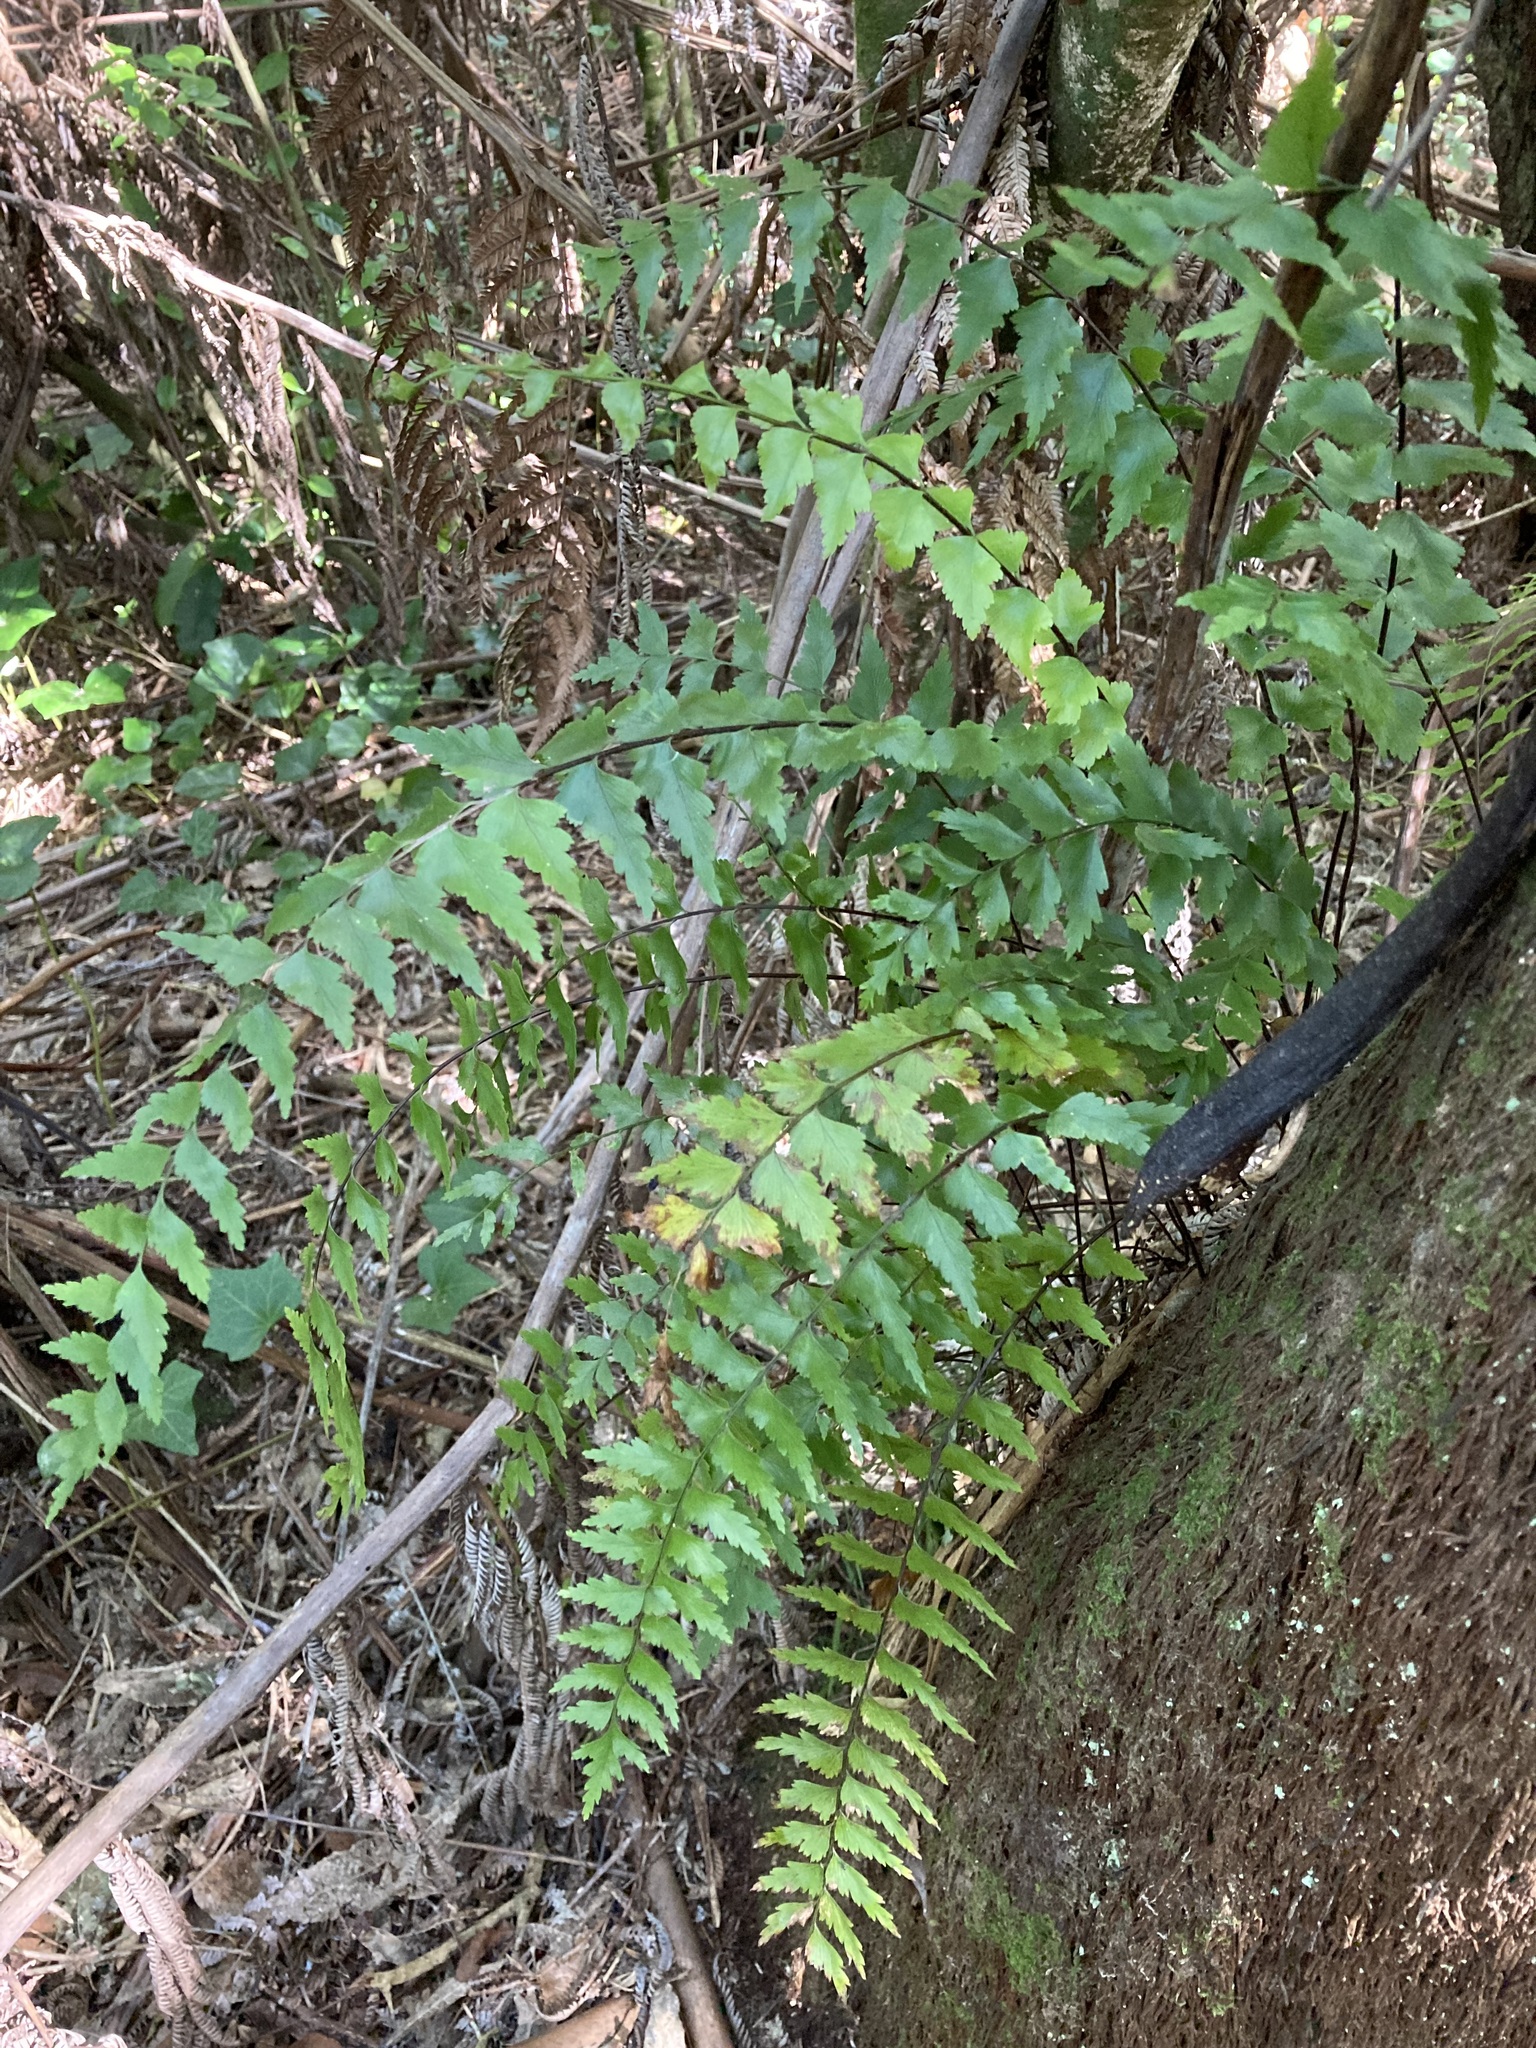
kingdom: Plantae
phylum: Tracheophyta
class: Polypodiopsida
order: Polypodiales
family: Aspleniaceae
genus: Asplenium
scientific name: Asplenium polyodon
